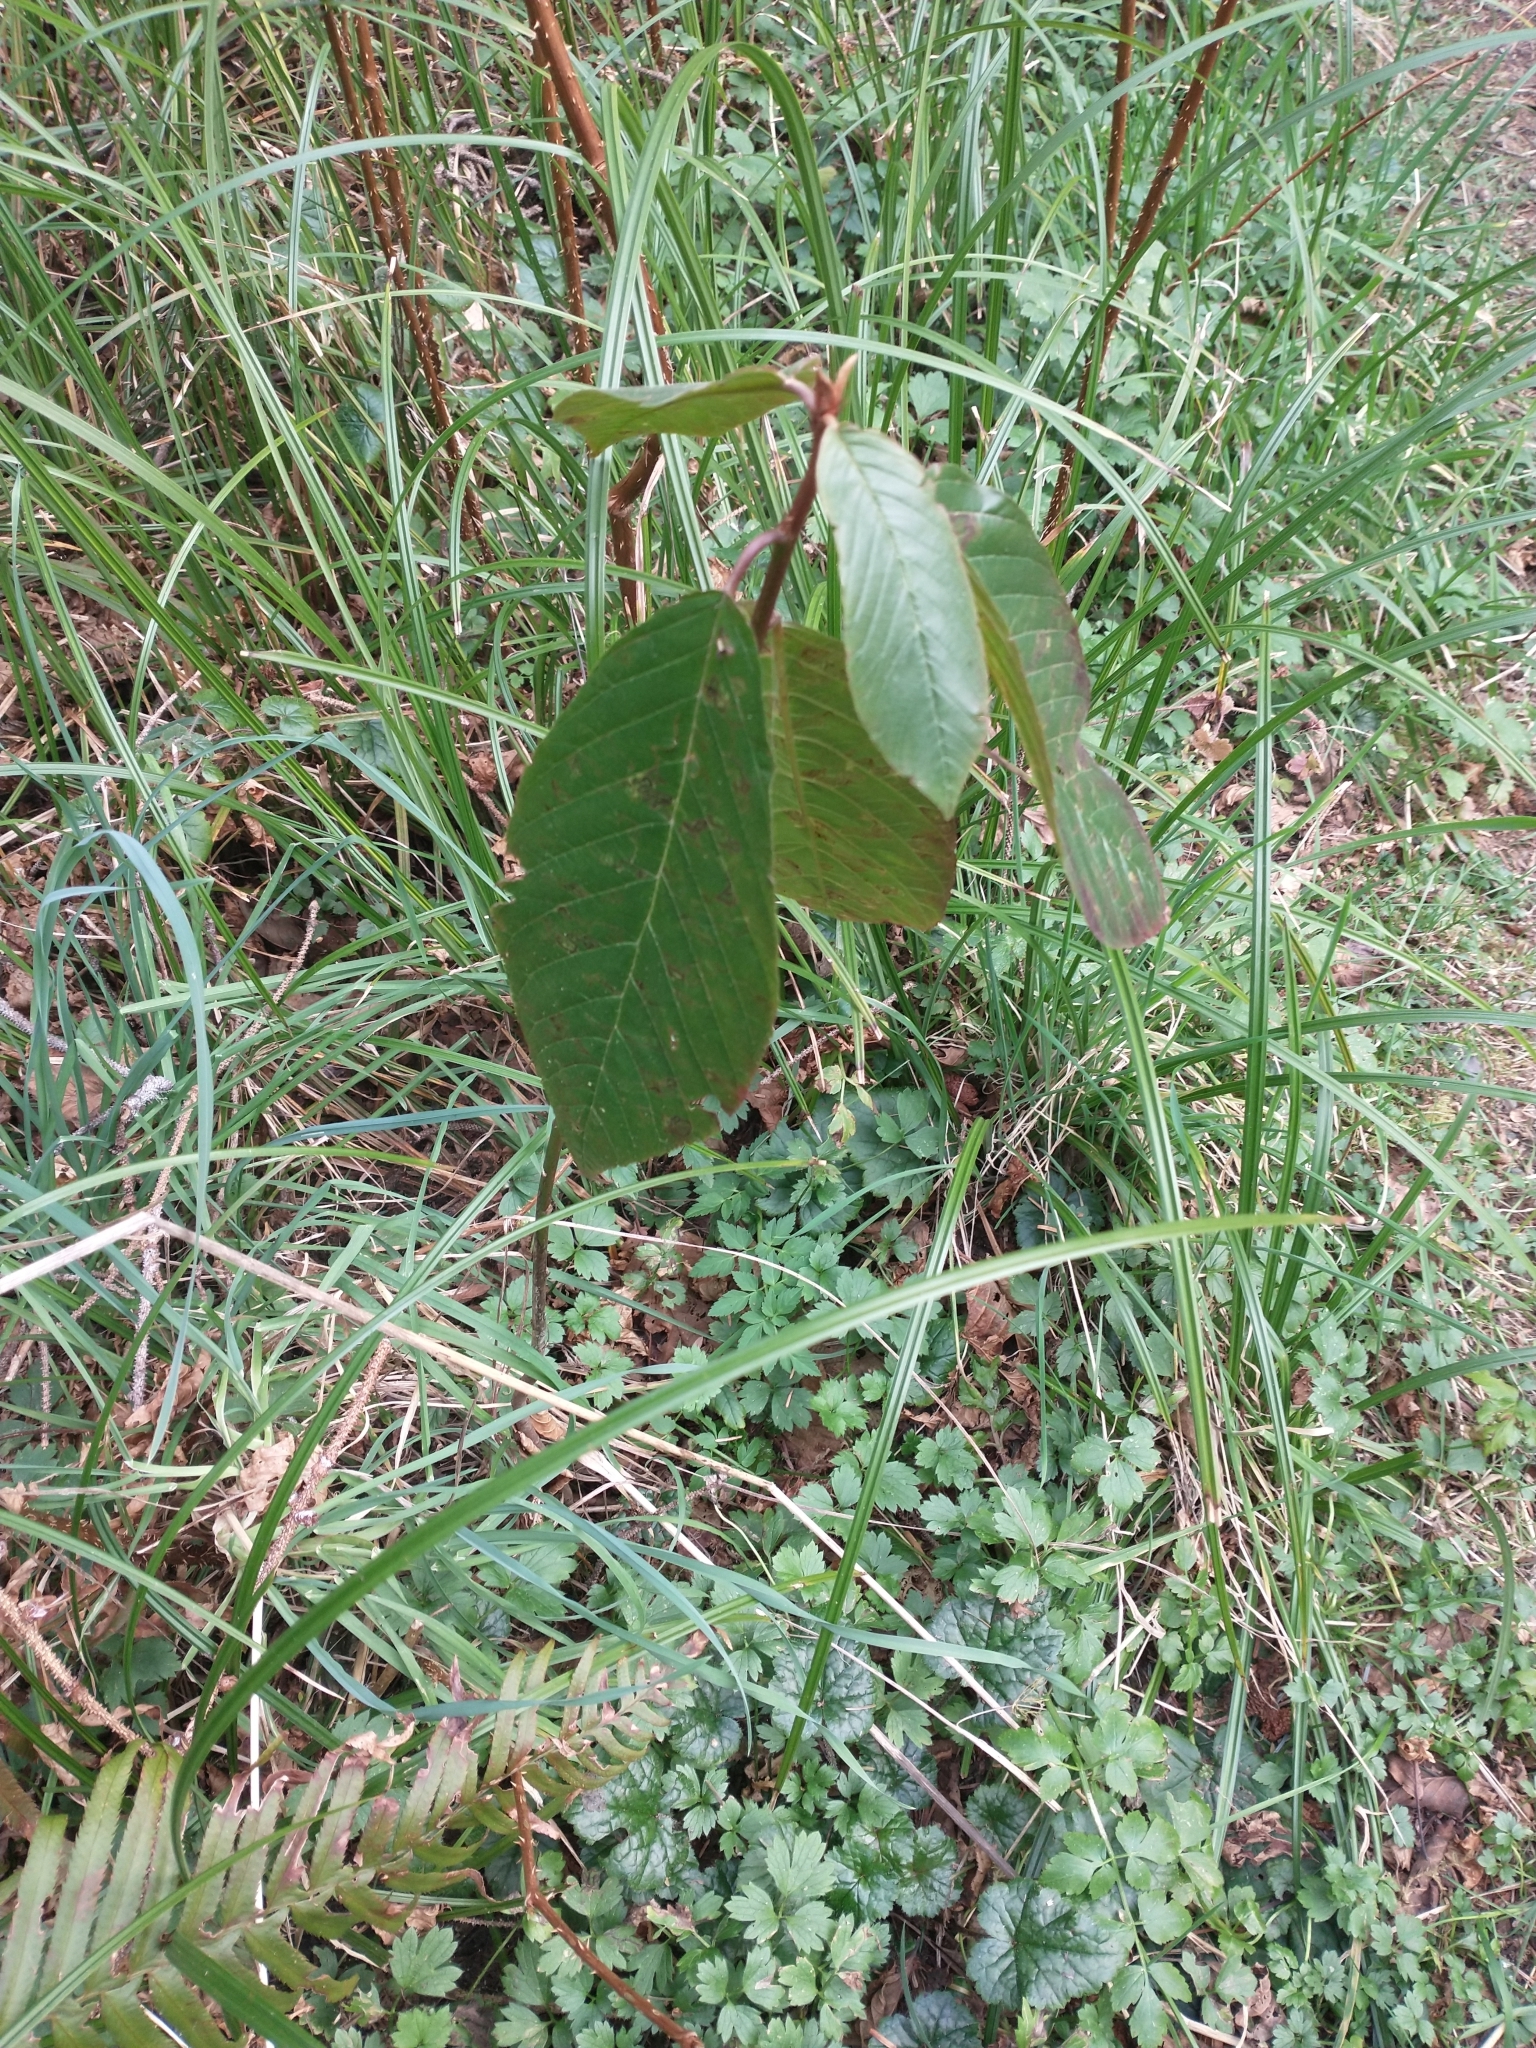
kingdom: Plantae
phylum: Tracheophyta
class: Magnoliopsida
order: Rosales
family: Rhamnaceae
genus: Frangula
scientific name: Frangula purshiana
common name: Cascara buckthorn
